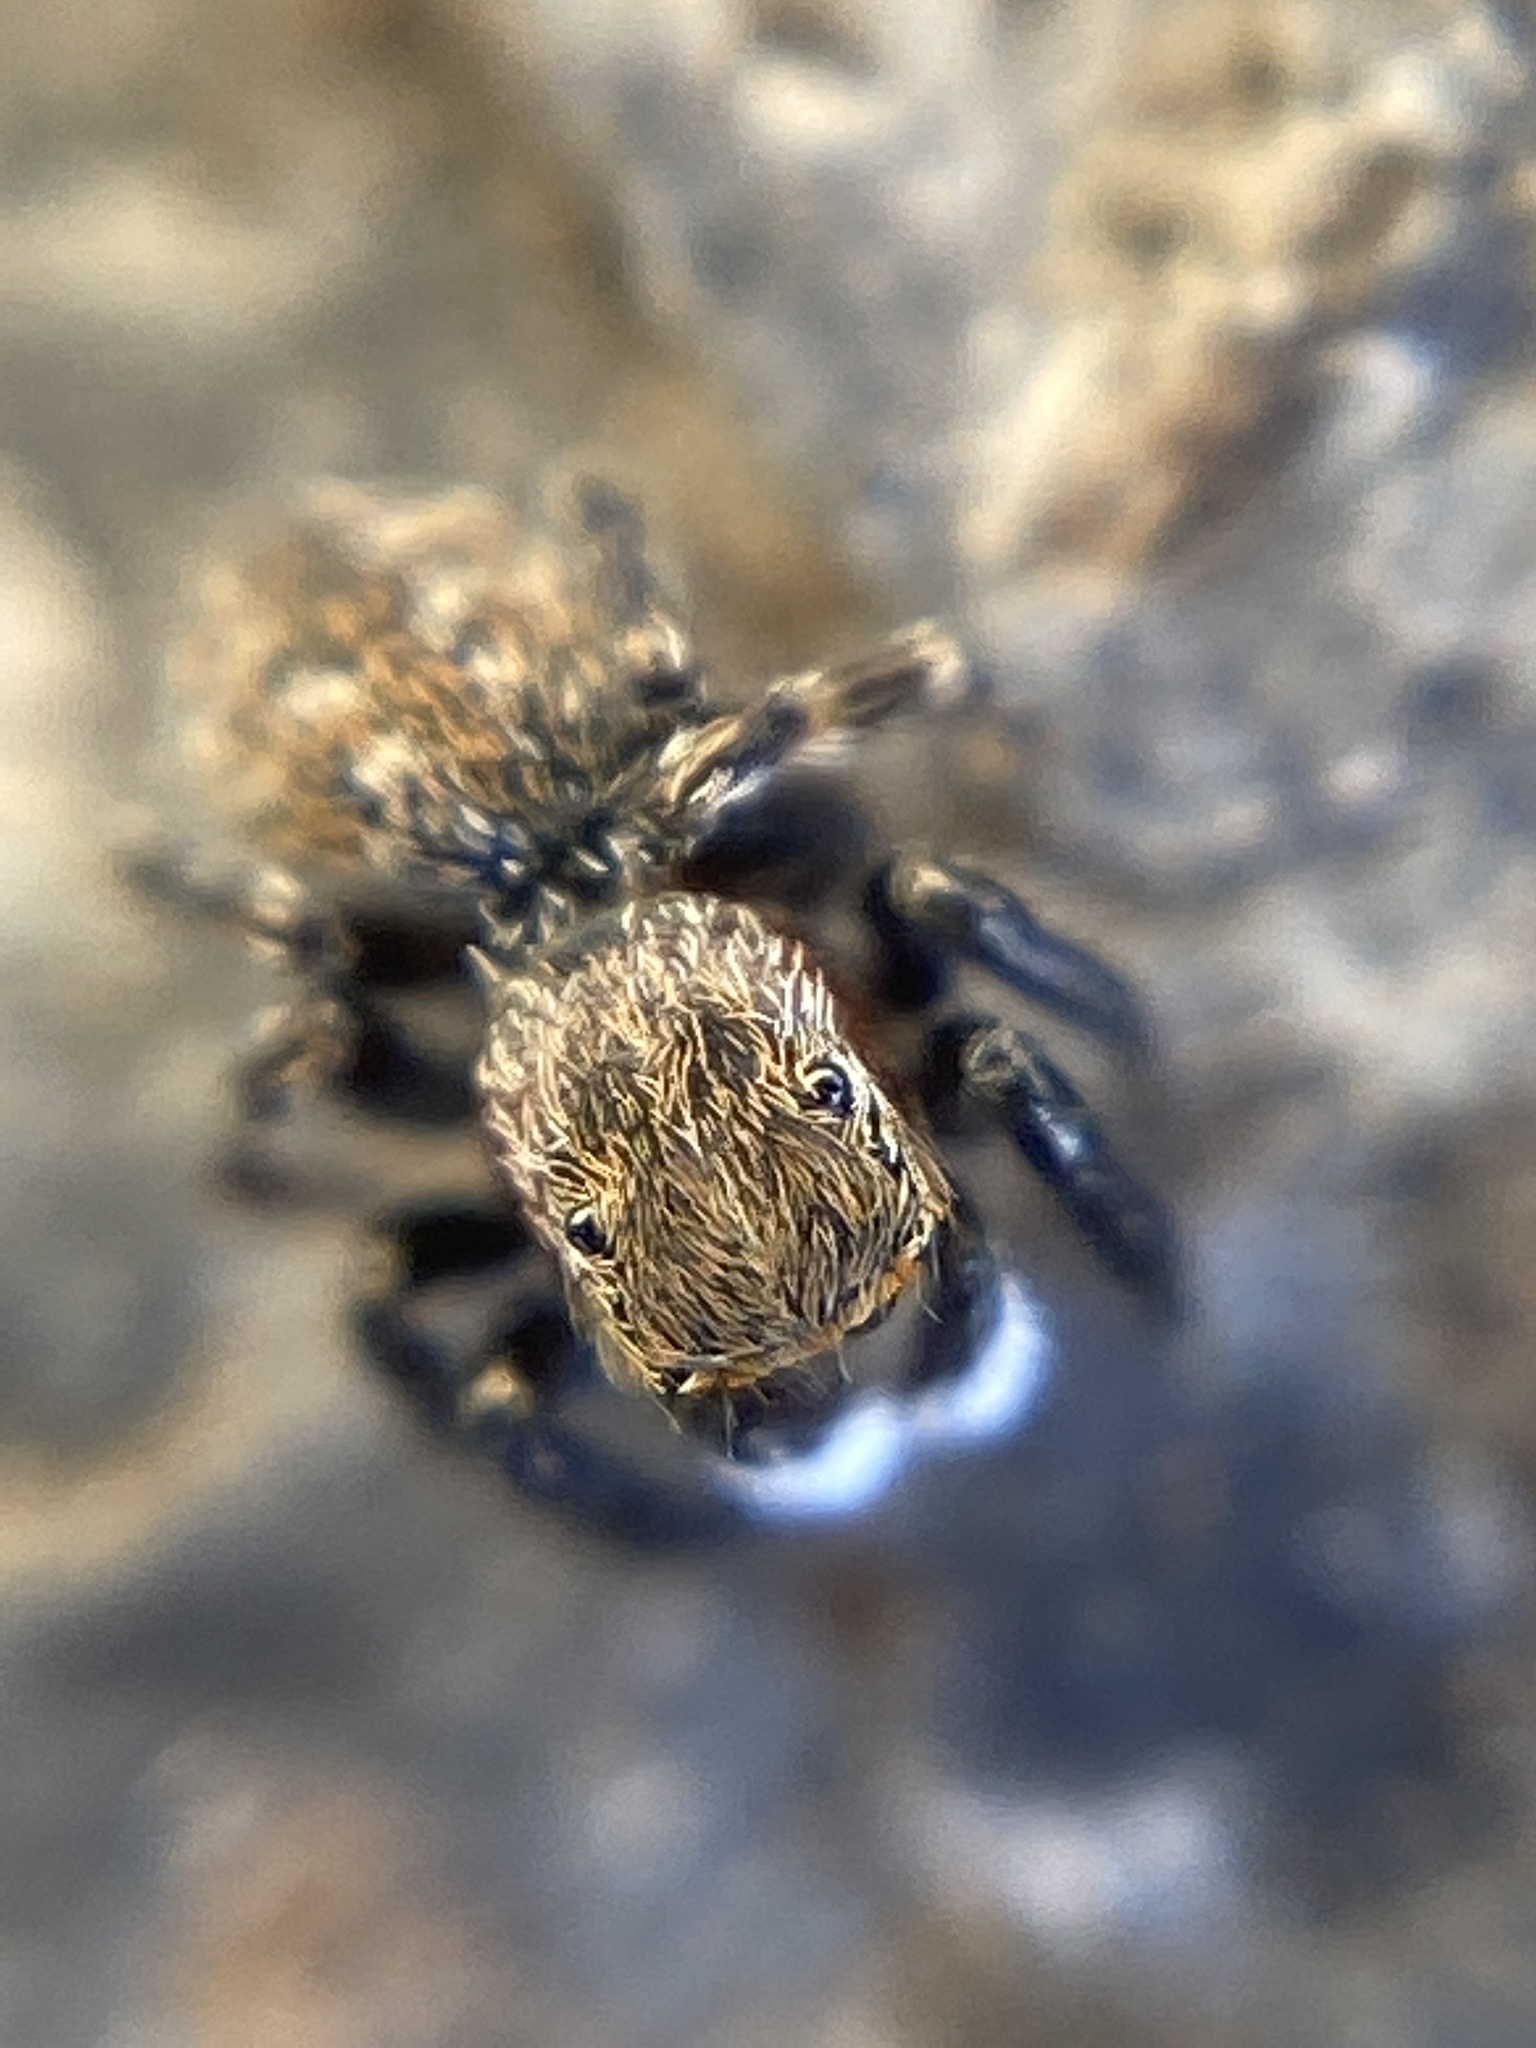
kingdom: Animalia
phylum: Arthropoda
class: Arachnida
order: Araneae
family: Salticidae
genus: Talavera
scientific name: Talavera petrensis
